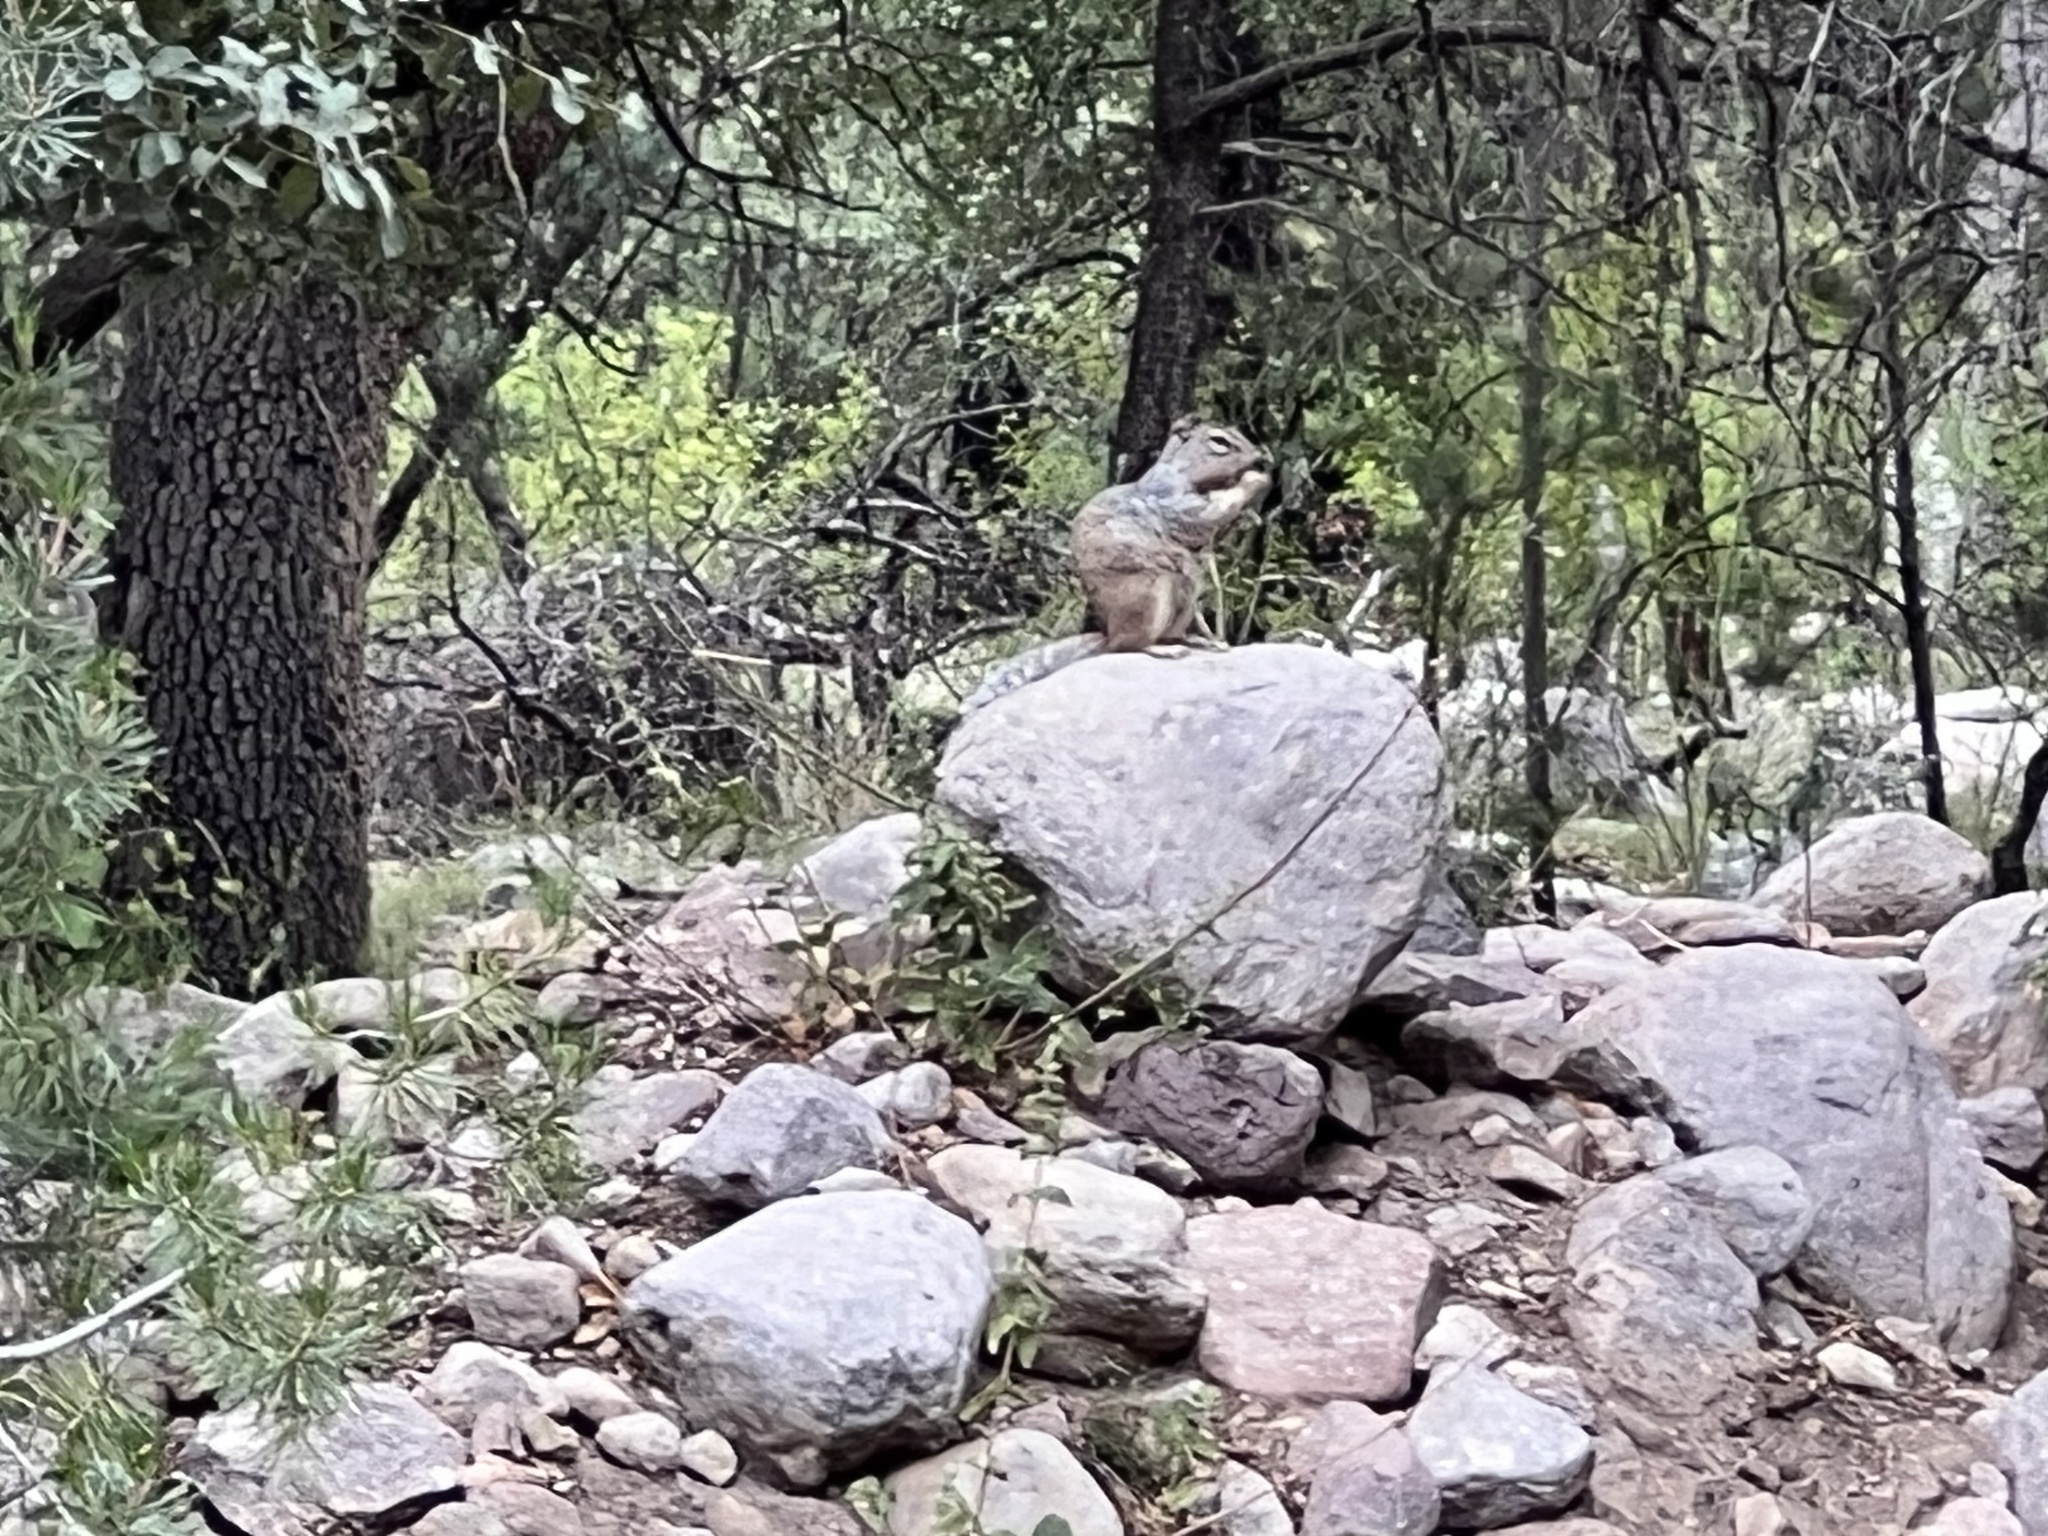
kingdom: Animalia
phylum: Chordata
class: Mammalia
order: Rodentia
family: Sciuridae
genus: Otospermophilus
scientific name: Otospermophilus variegatus
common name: Rock squirrel
